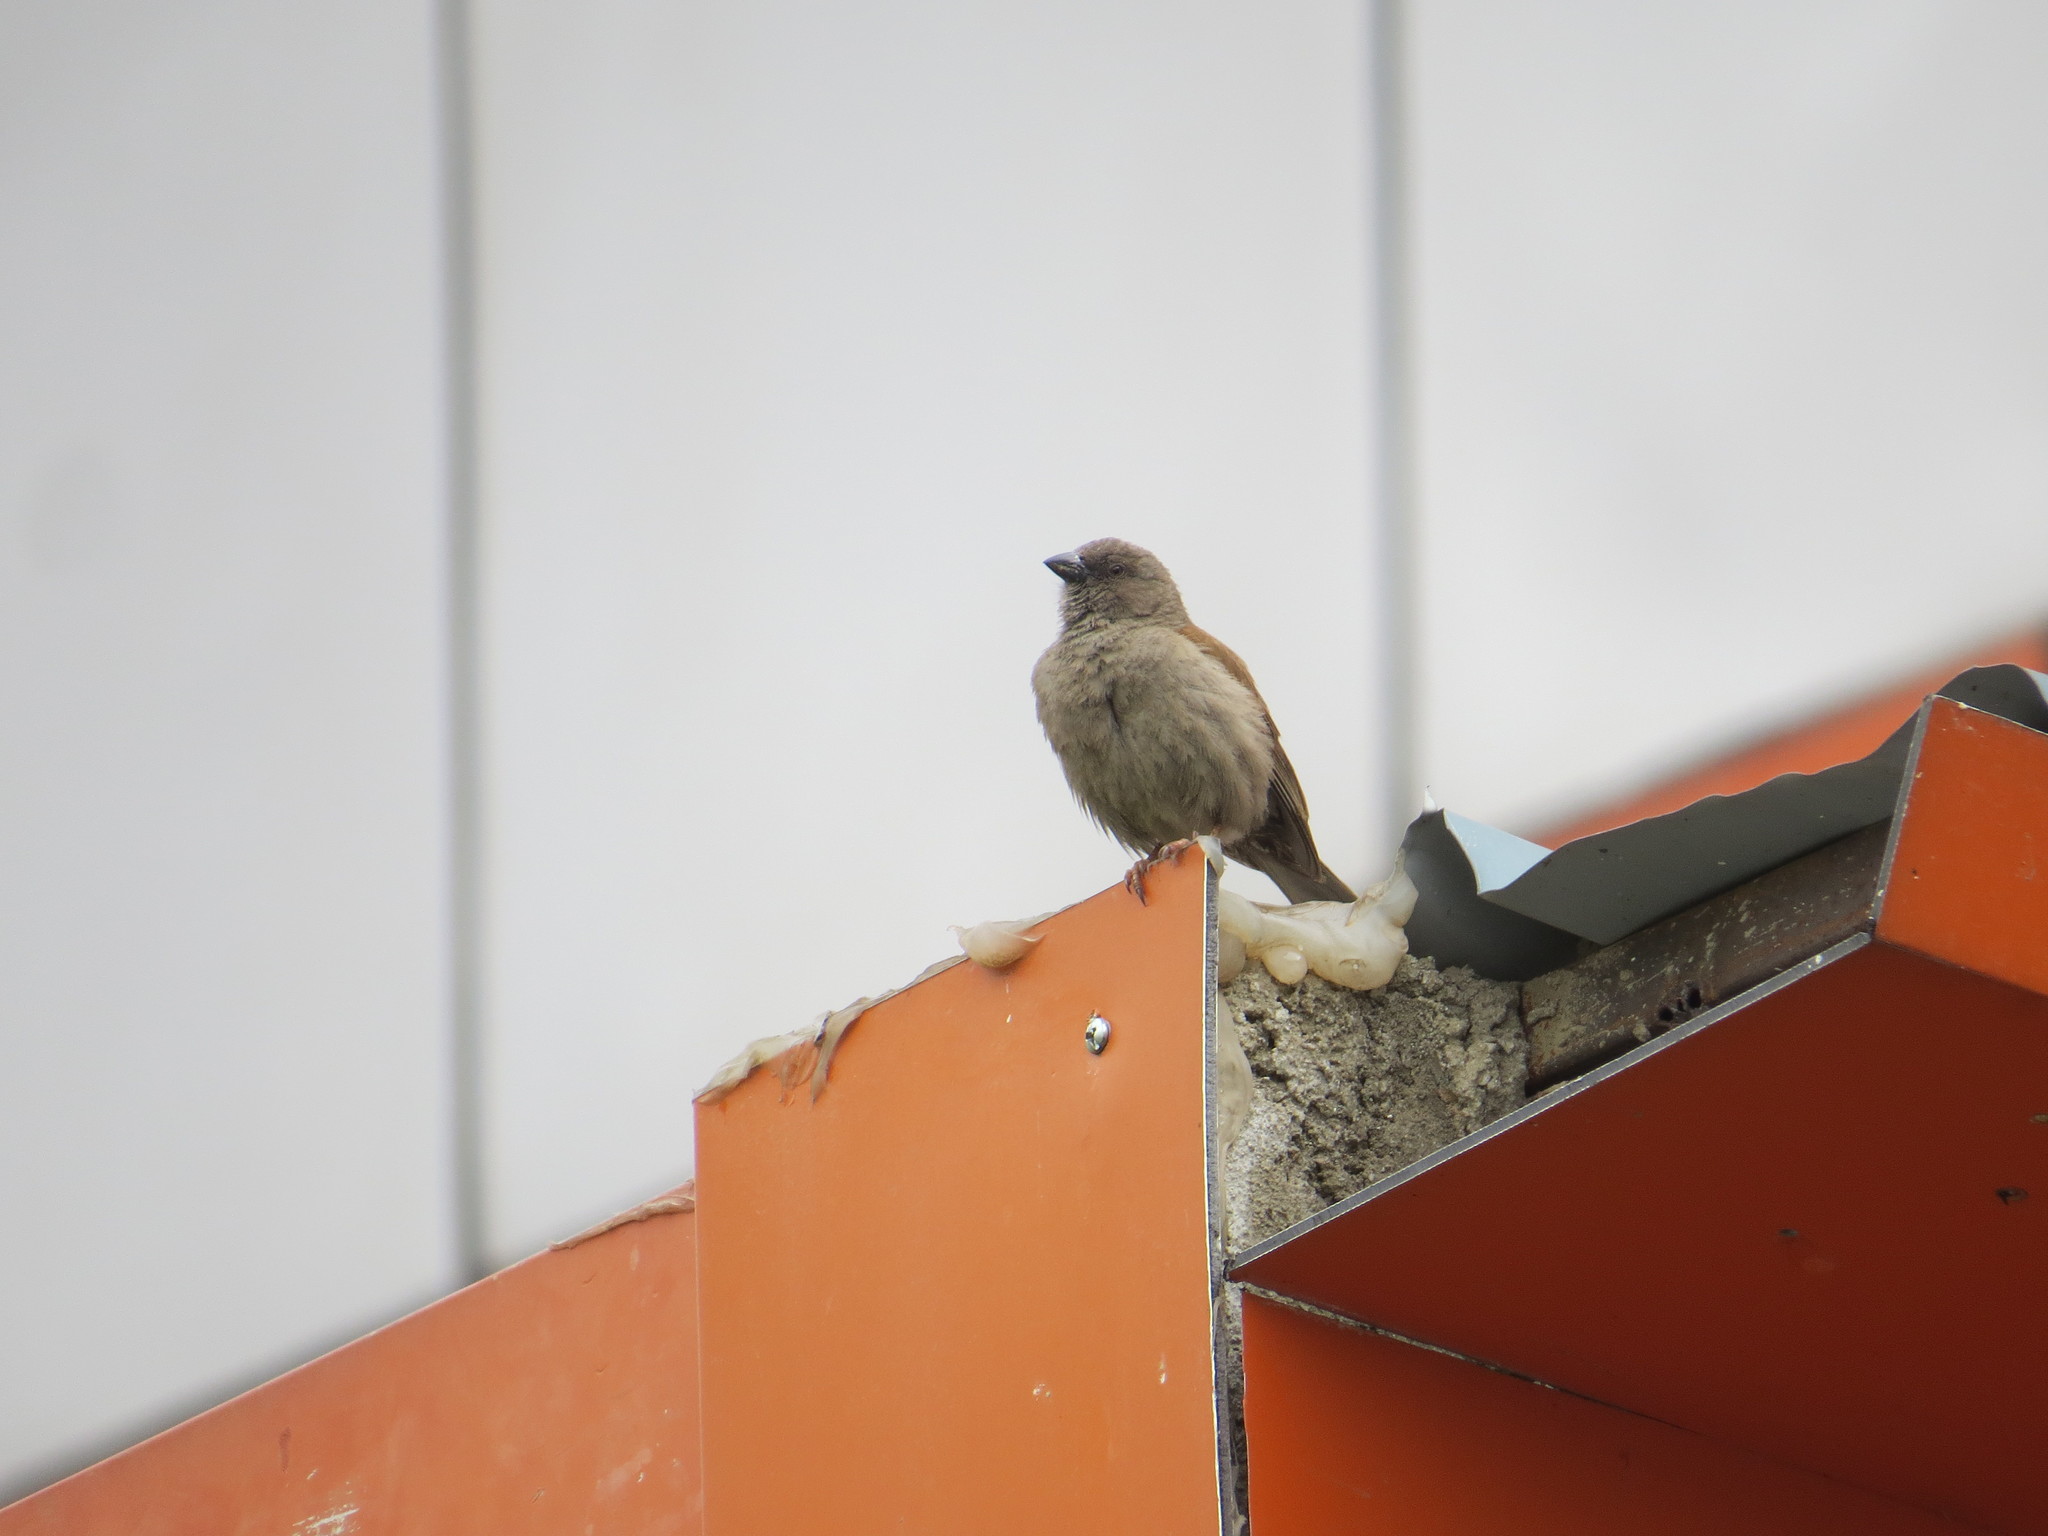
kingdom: Animalia
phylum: Chordata
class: Aves
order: Passeriformes
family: Passeridae
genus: Passer
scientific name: Passer swainsonii
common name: Swainson's sparrow
